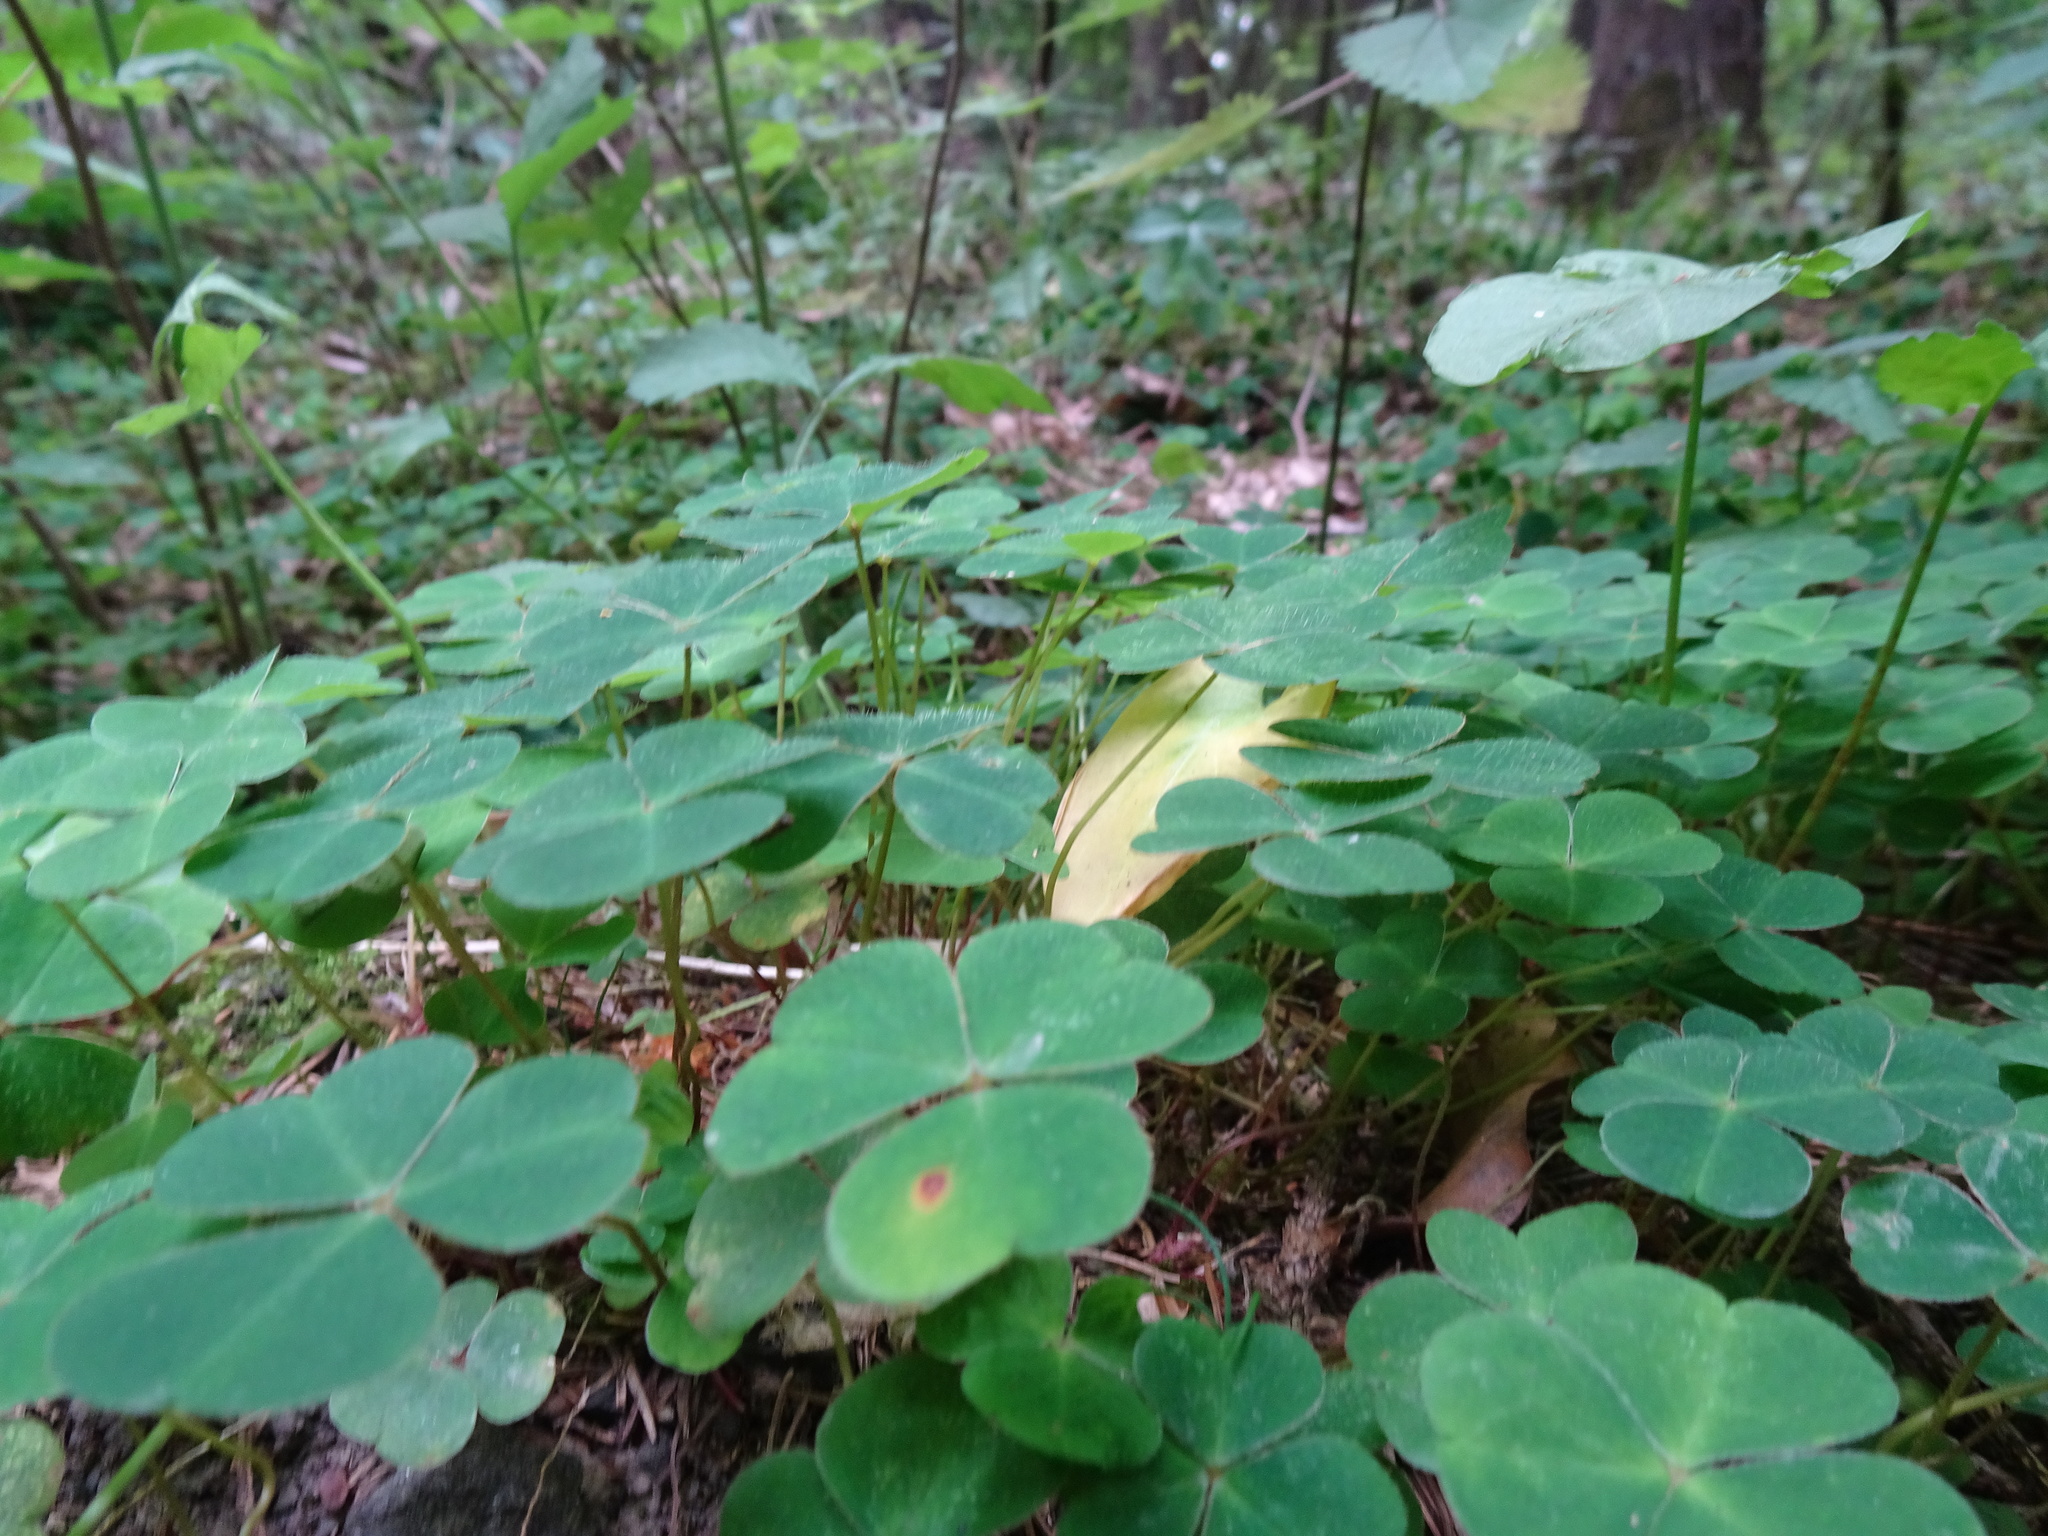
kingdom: Plantae
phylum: Tracheophyta
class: Magnoliopsida
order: Oxalidales
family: Oxalidaceae
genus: Oxalis
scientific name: Oxalis acetosella
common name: Wood-sorrel
